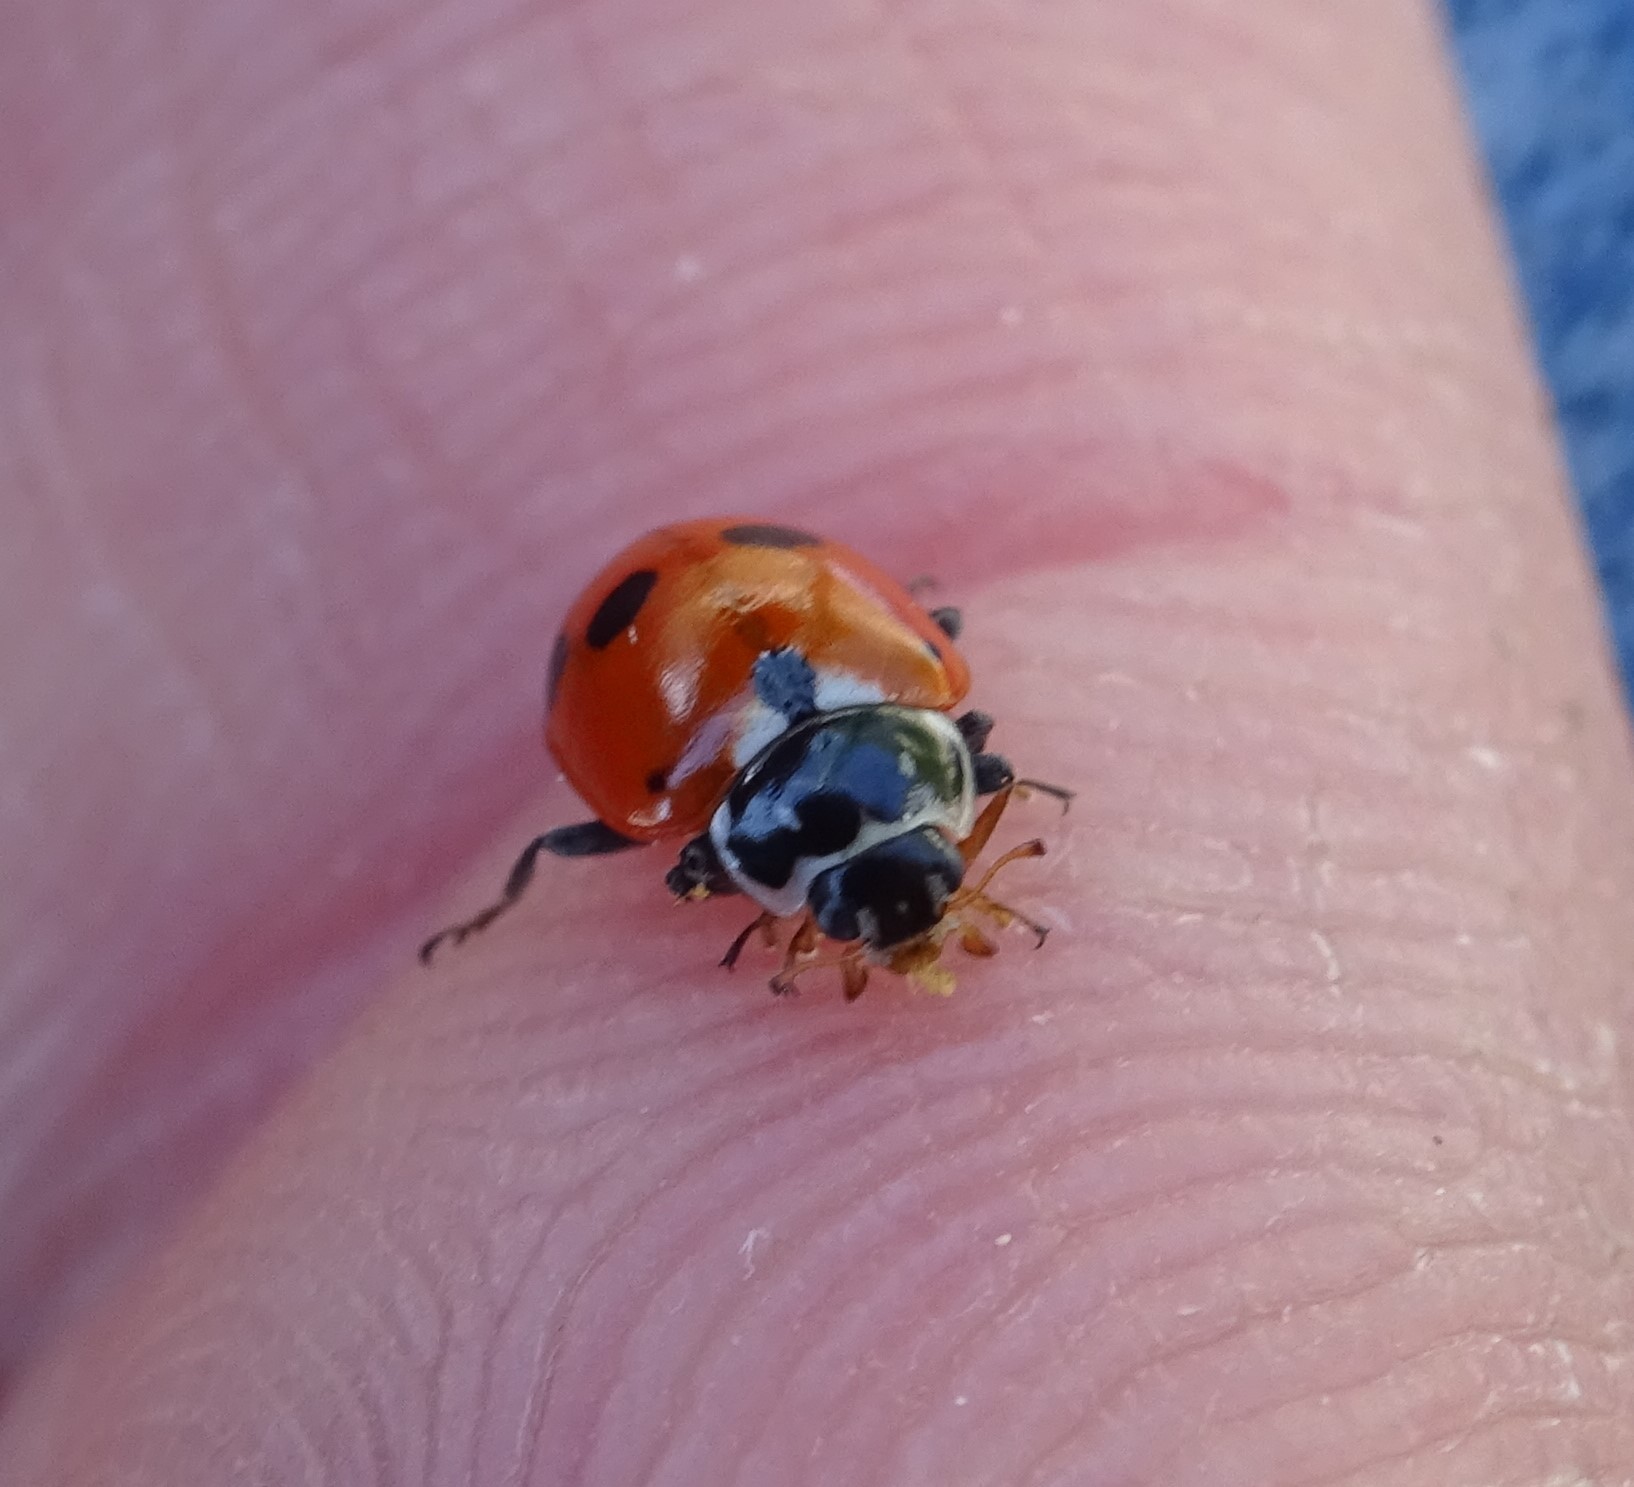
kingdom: Animalia
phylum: Arthropoda
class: Insecta
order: Coleoptera
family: Coccinellidae
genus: Hippodamia
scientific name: Hippodamia variegata
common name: Ladybird beetle
